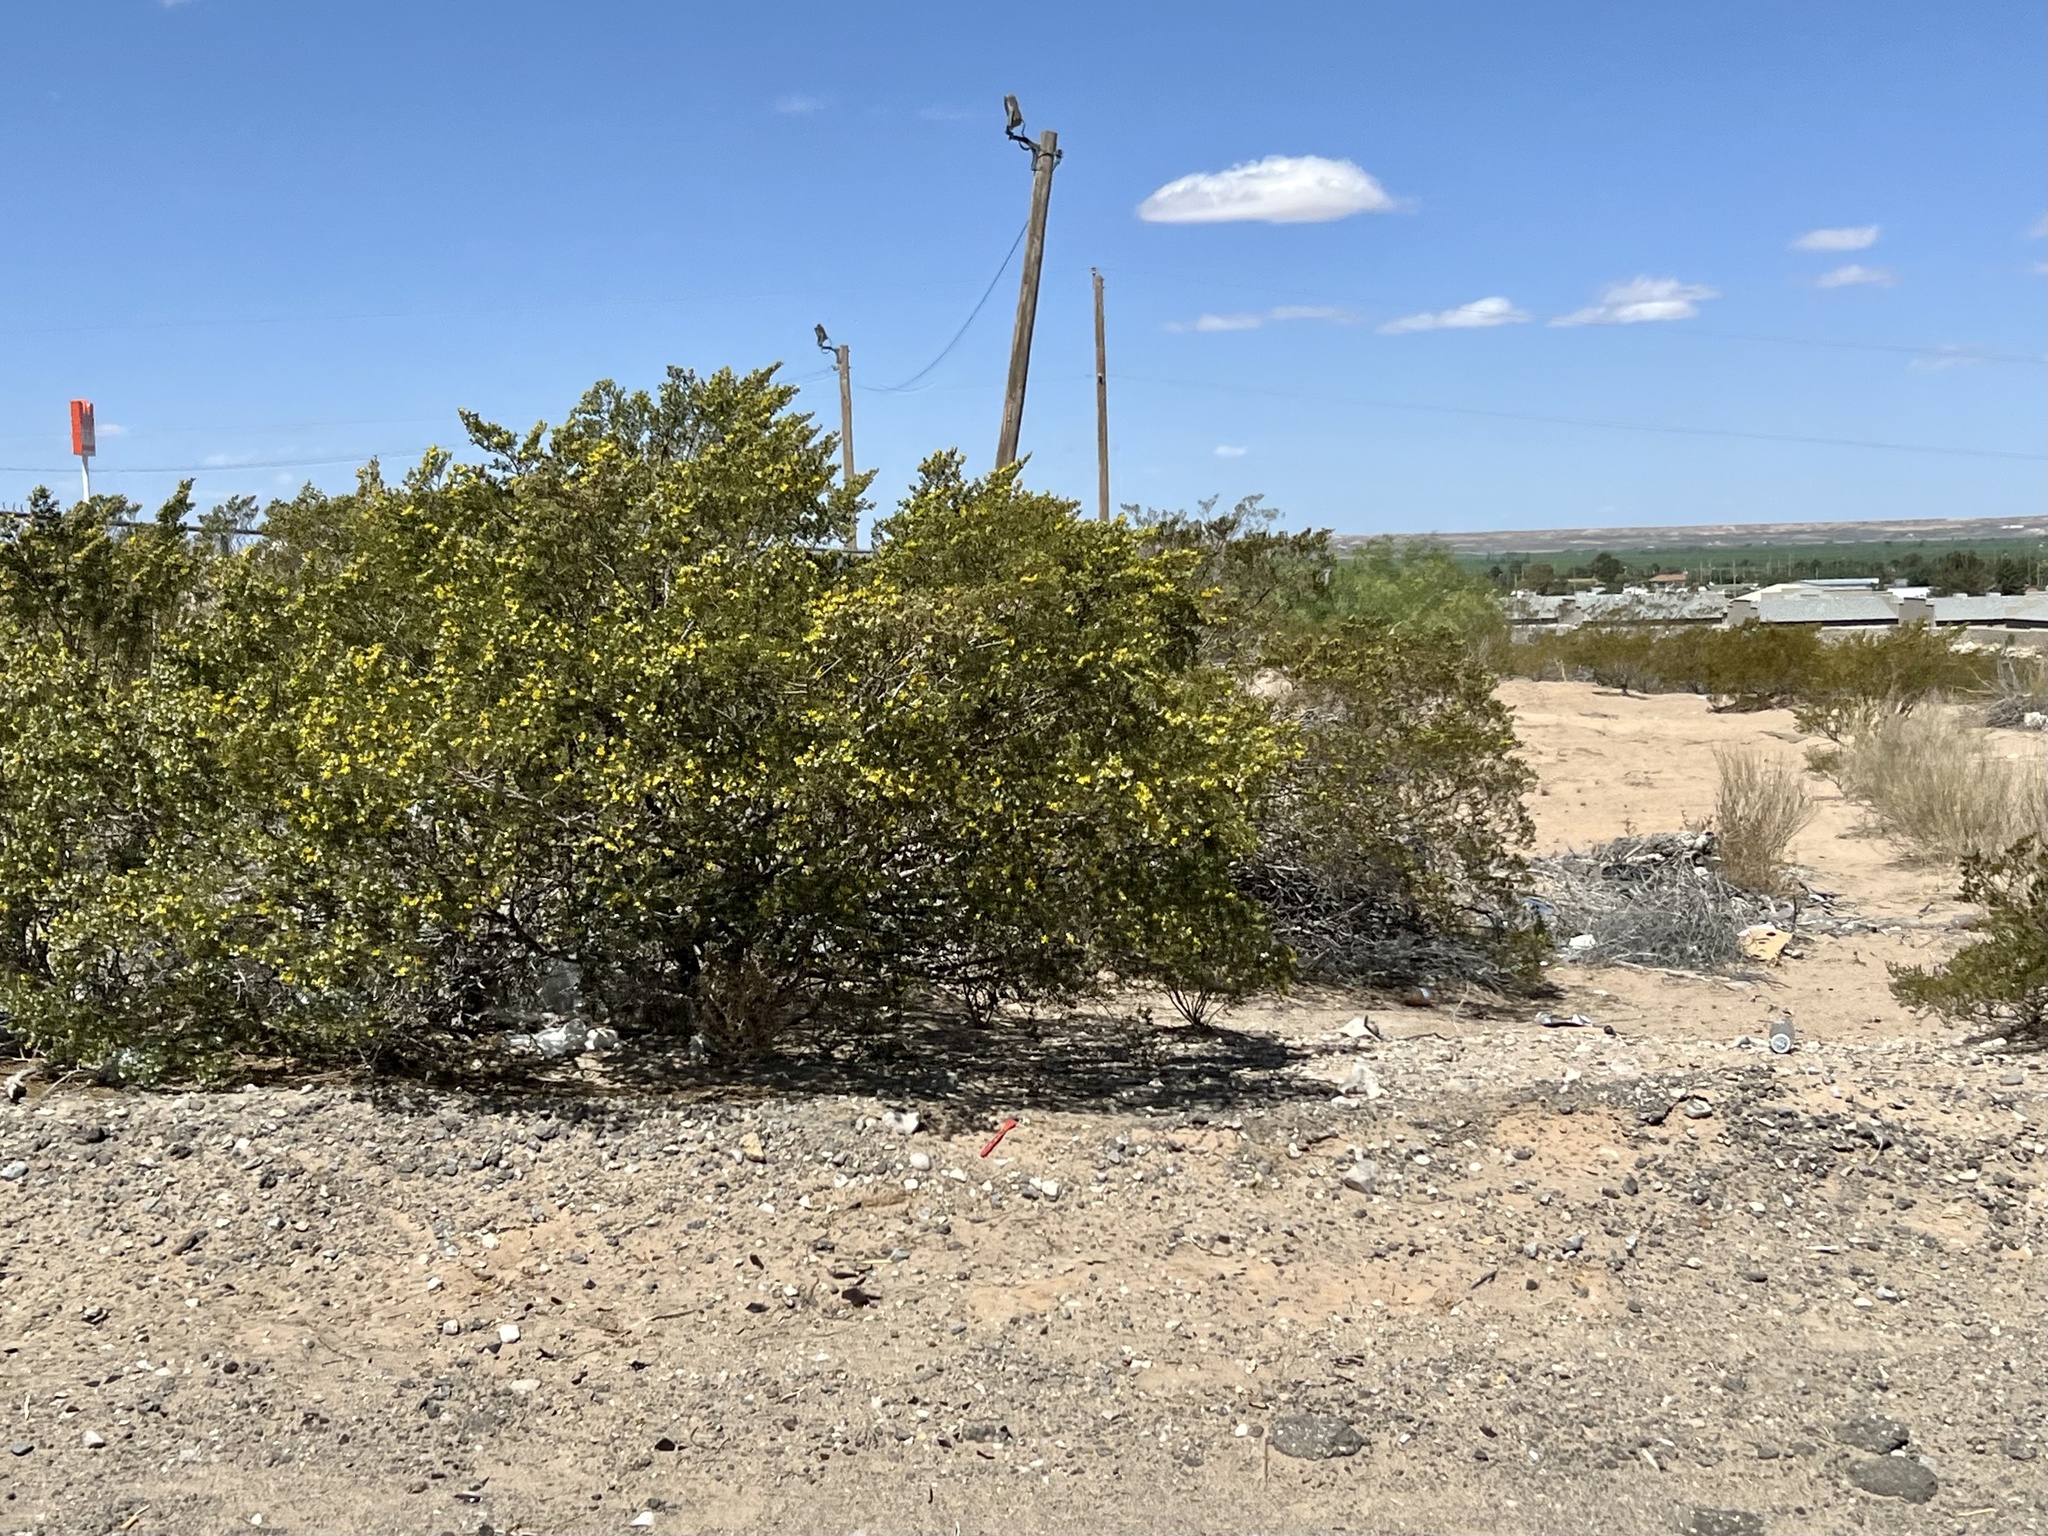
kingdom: Plantae
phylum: Tracheophyta
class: Magnoliopsida
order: Zygophyllales
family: Zygophyllaceae
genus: Larrea
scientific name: Larrea tridentata
